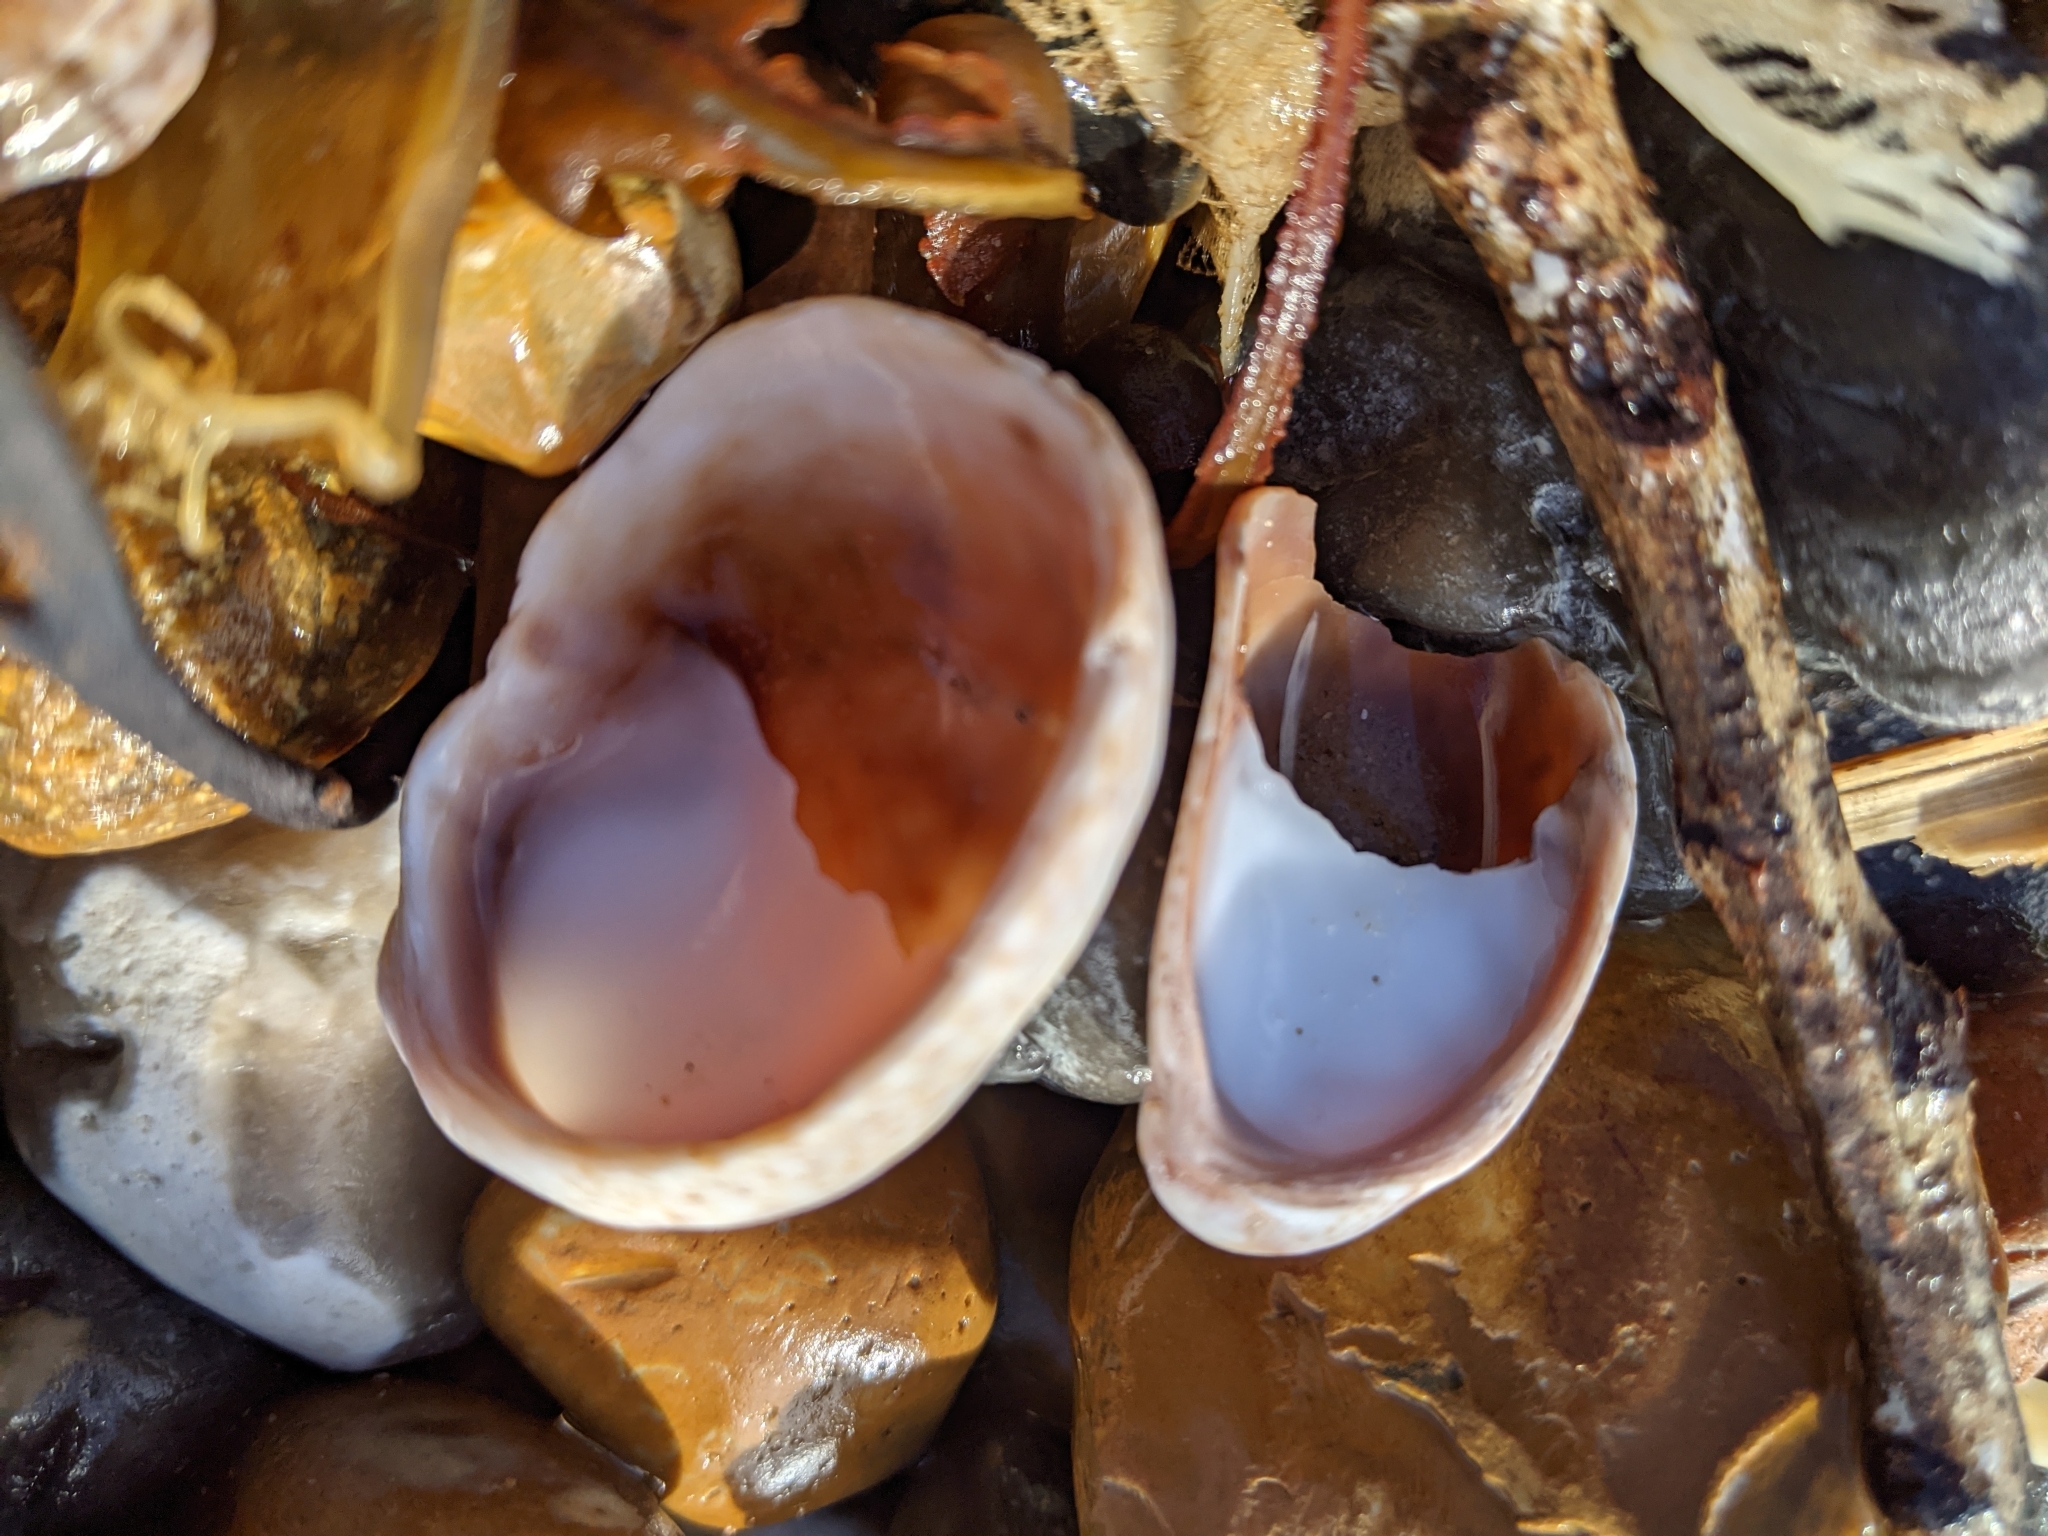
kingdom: Animalia
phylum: Mollusca
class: Gastropoda
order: Littorinimorpha
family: Calyptraeidae
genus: Crepidula
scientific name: Crepidula fornicata
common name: Slipper limpet
